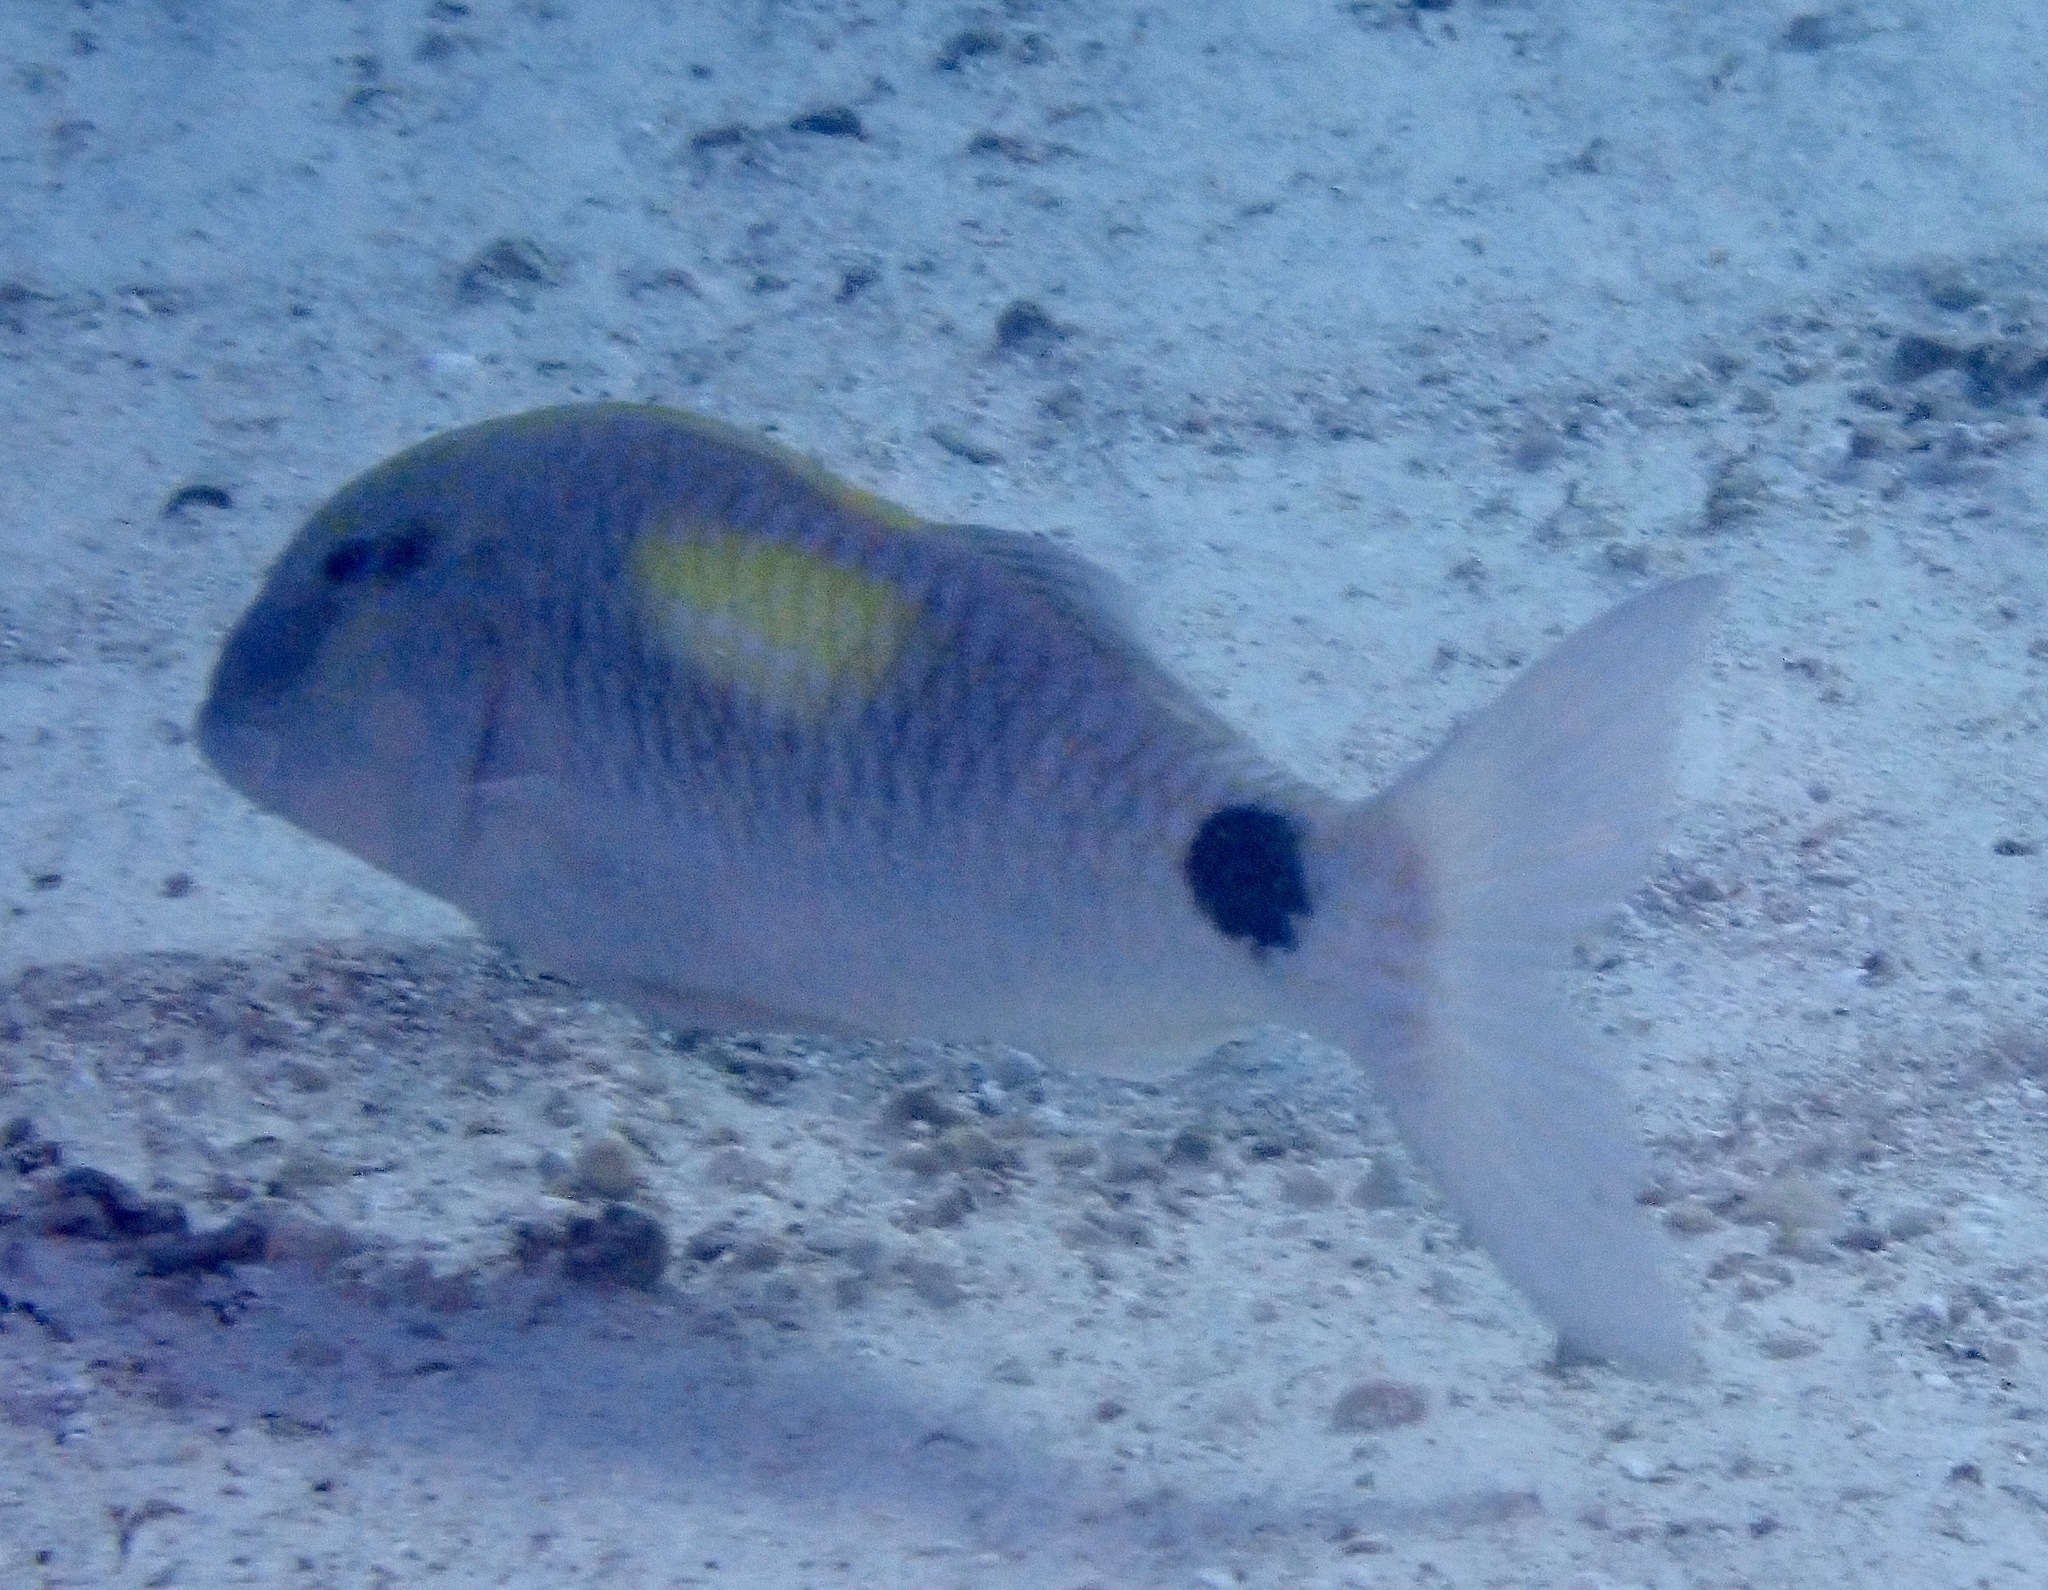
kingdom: Animalia
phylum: Chordata
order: Perciformes
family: Mullidae
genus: Parupeneus
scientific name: Parupeneus indicus
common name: Indian goatfish
